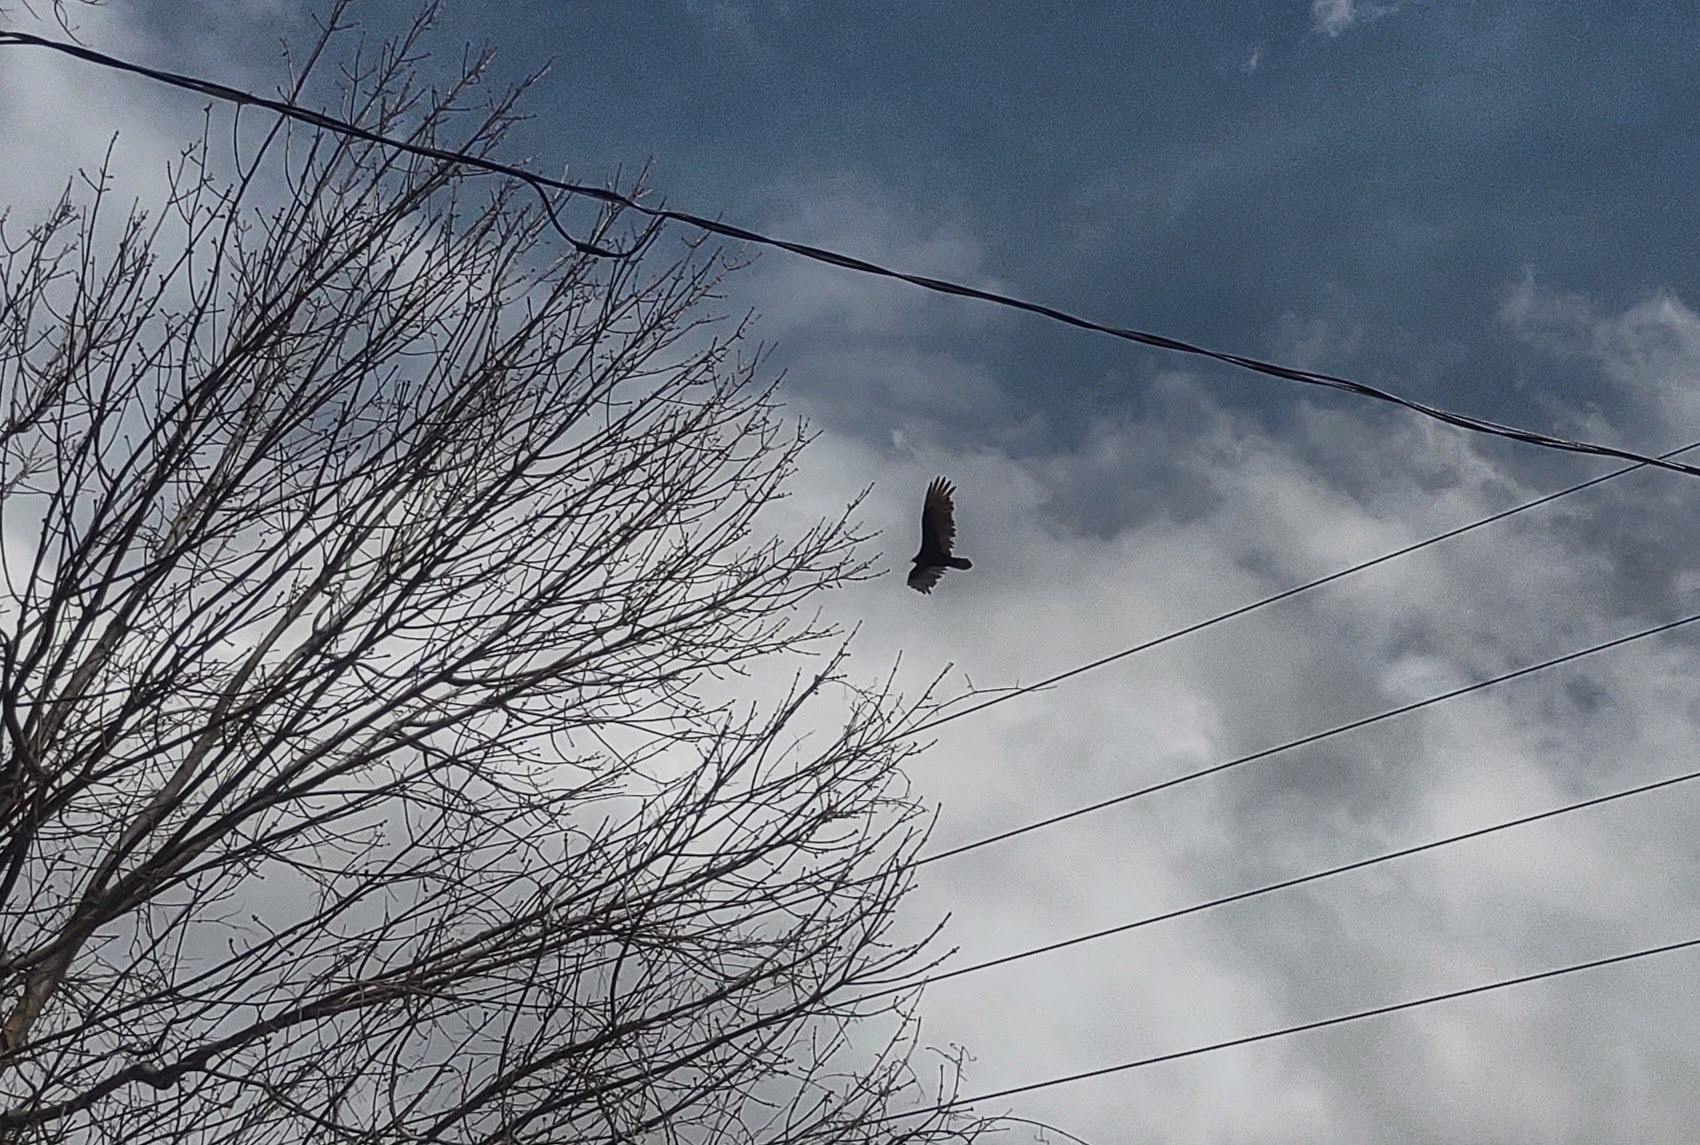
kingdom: Animalia
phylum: Chordata
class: Aves
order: Accipitriformes
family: Cathartidae
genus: Cathartes
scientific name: Cathartes aura
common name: Turkey vulture
